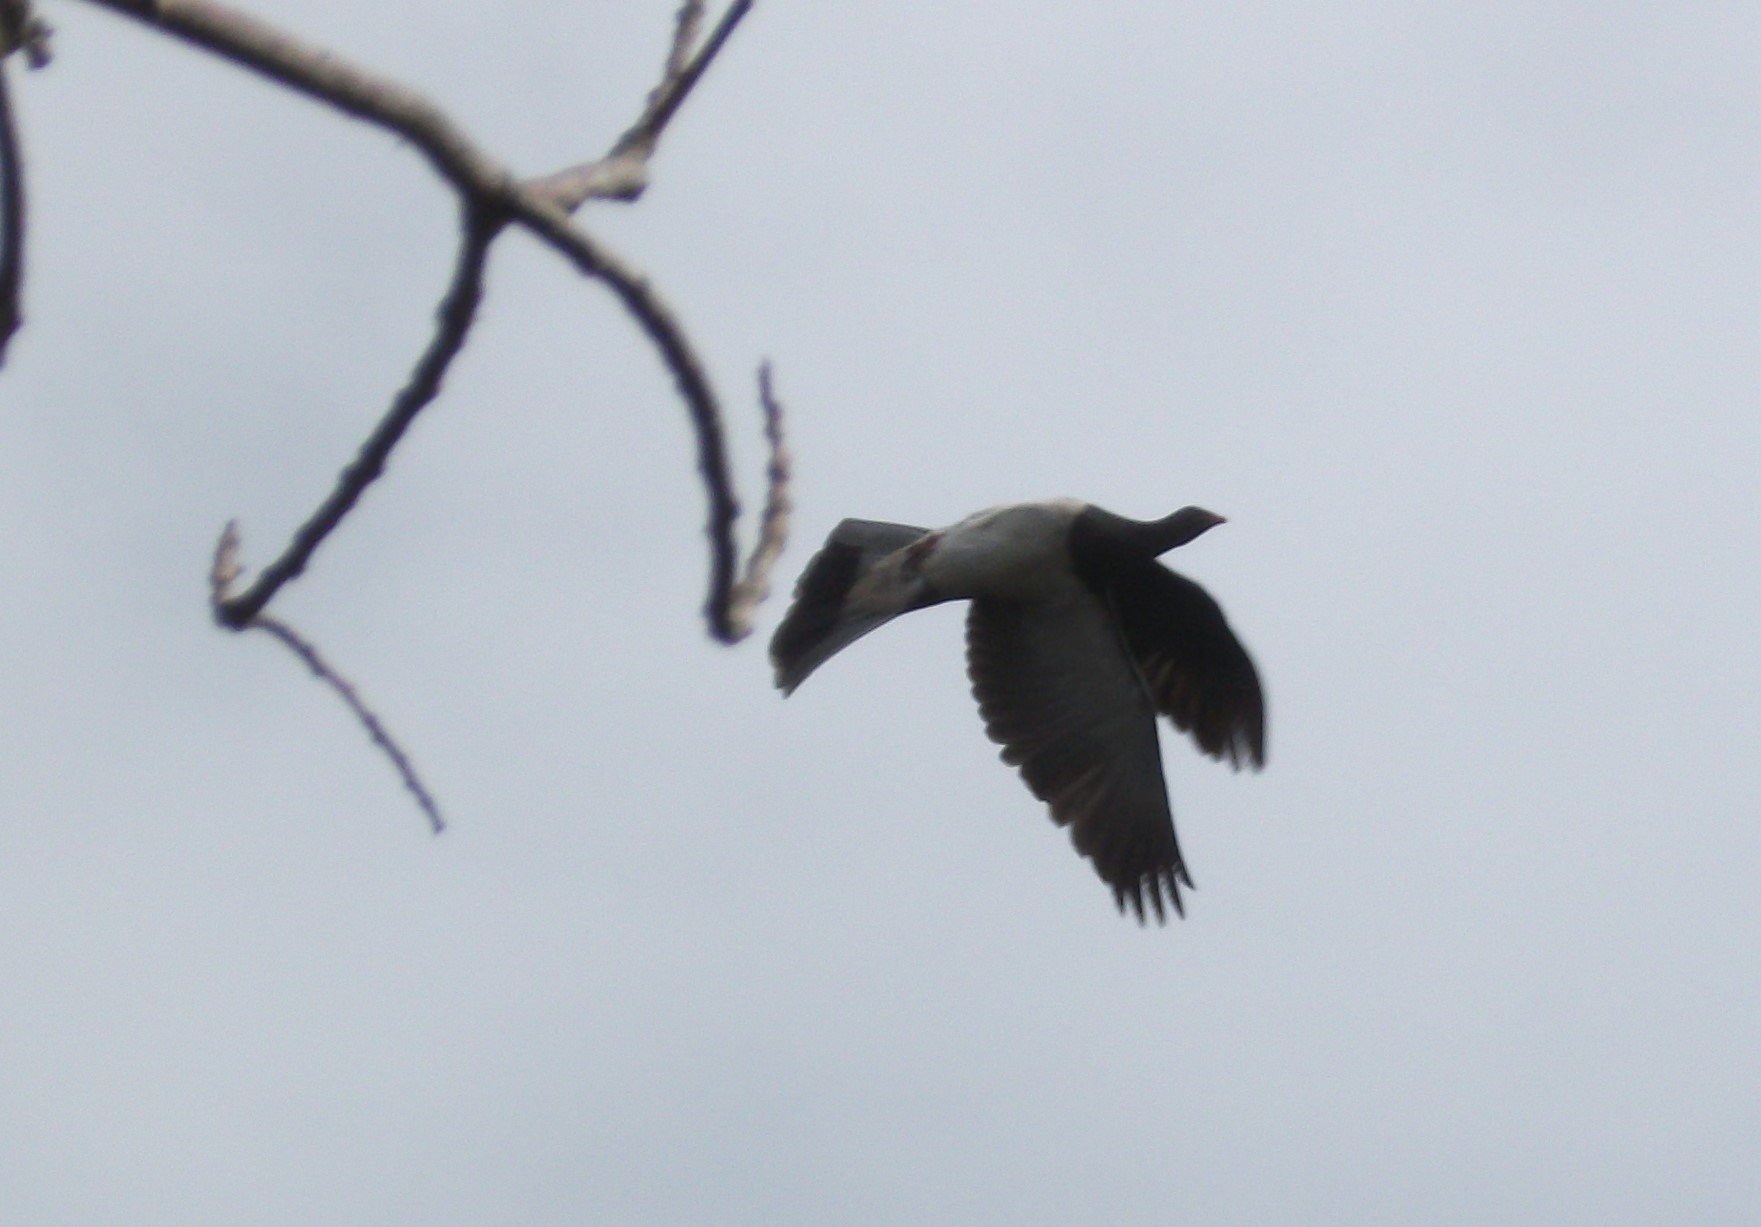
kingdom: Animalia
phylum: Chordata
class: Aves
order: Columbiformes
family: Columbidae
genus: Hemiphaga
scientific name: Hemiphaga novaeseelandiae
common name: New zealand pigeon
